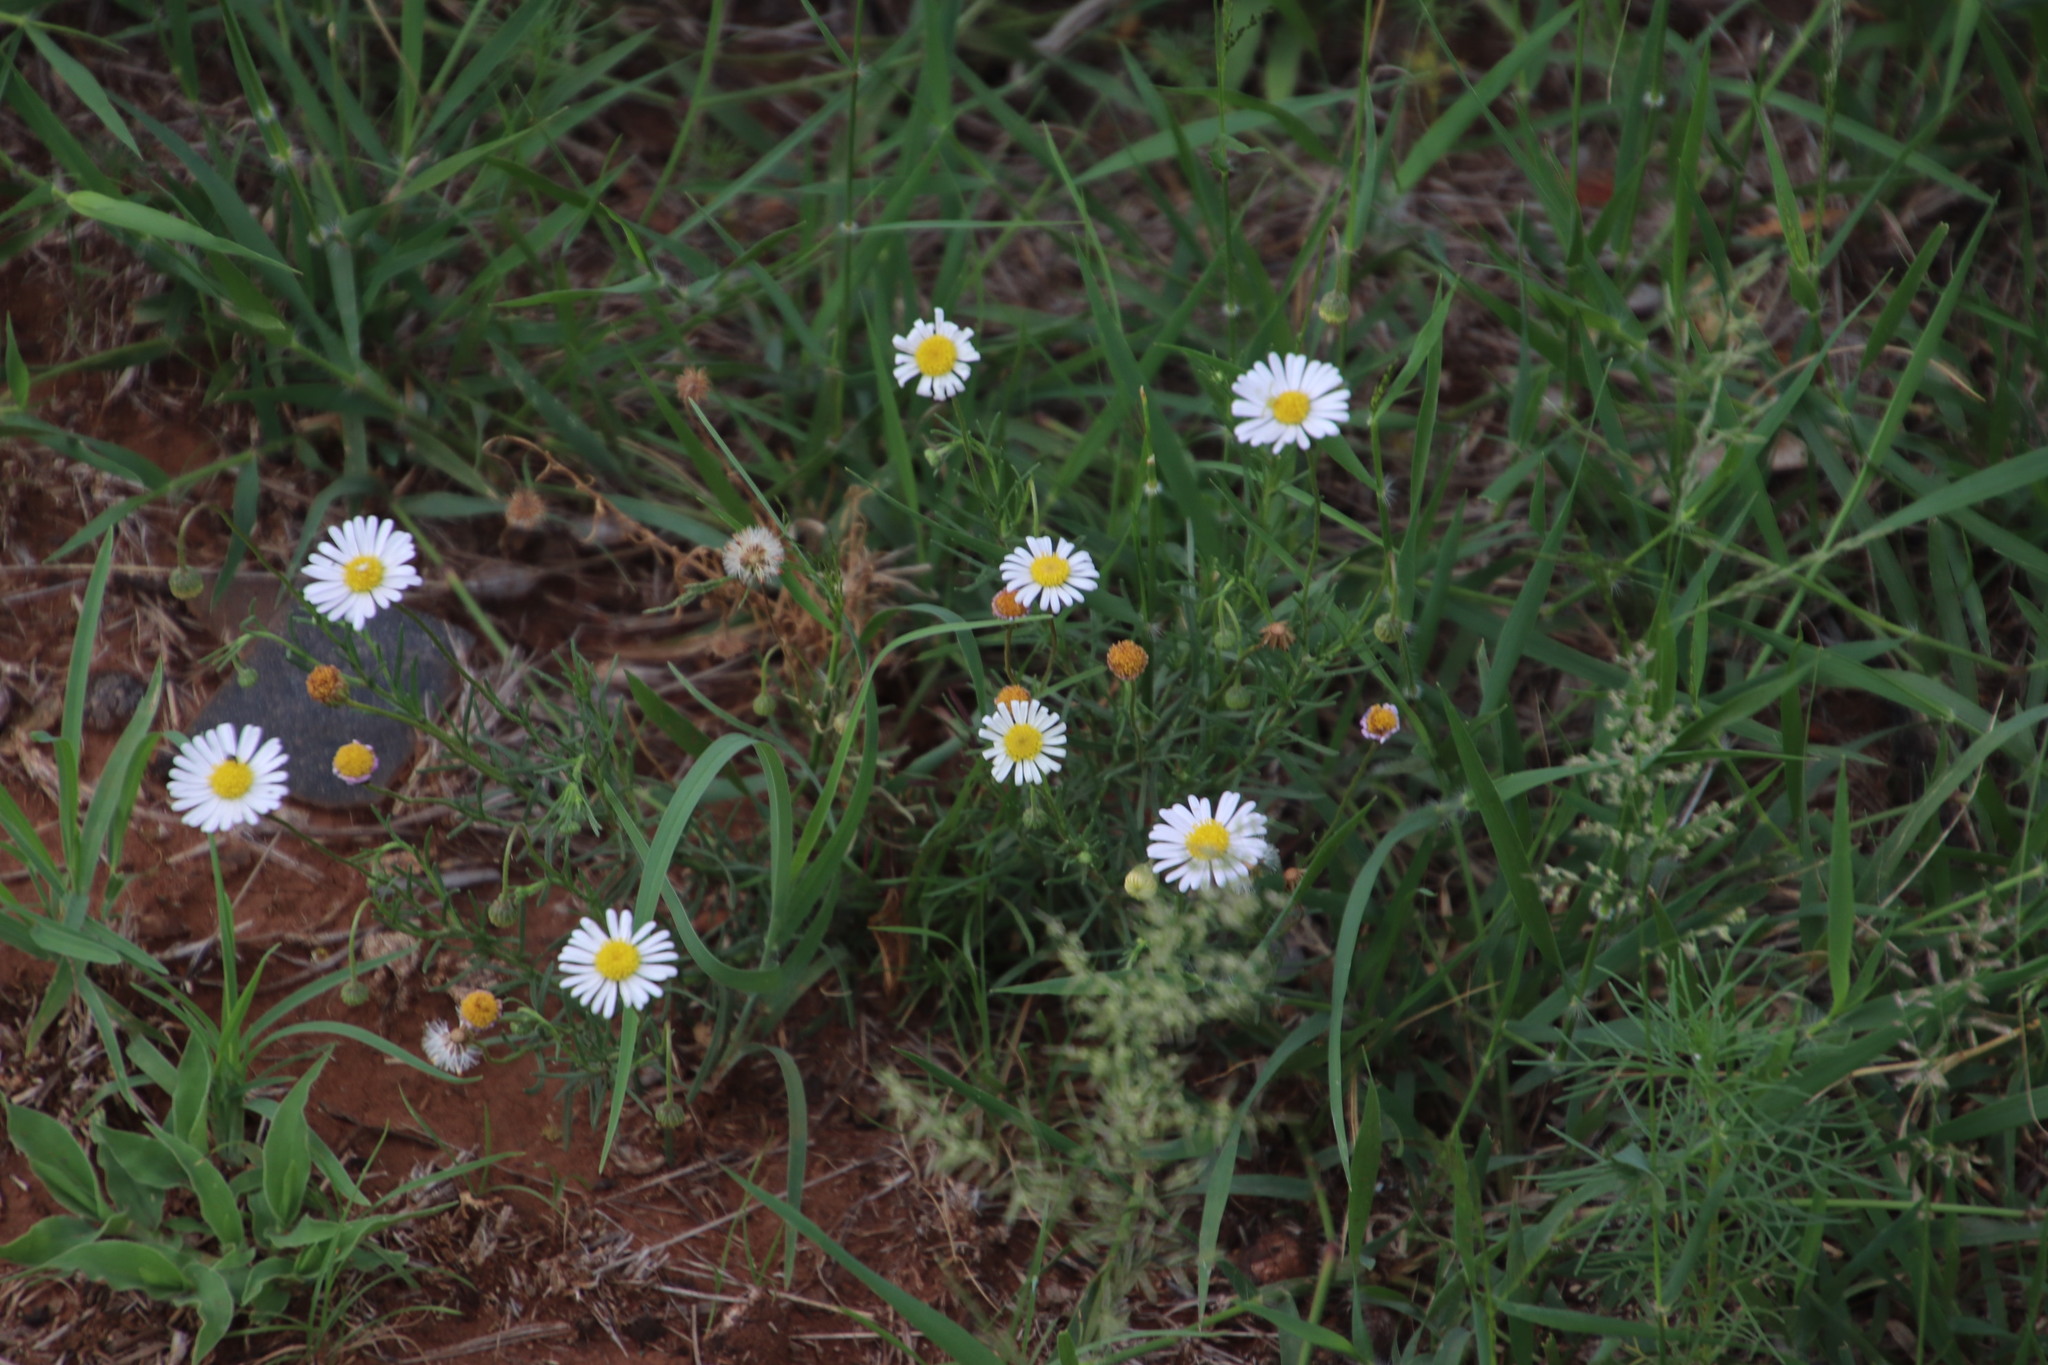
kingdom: Plantae
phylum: Tracheophyta
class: Magnoliopsida
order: Asterales
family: Asteraceae
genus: Felicia
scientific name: Felicia muricata
